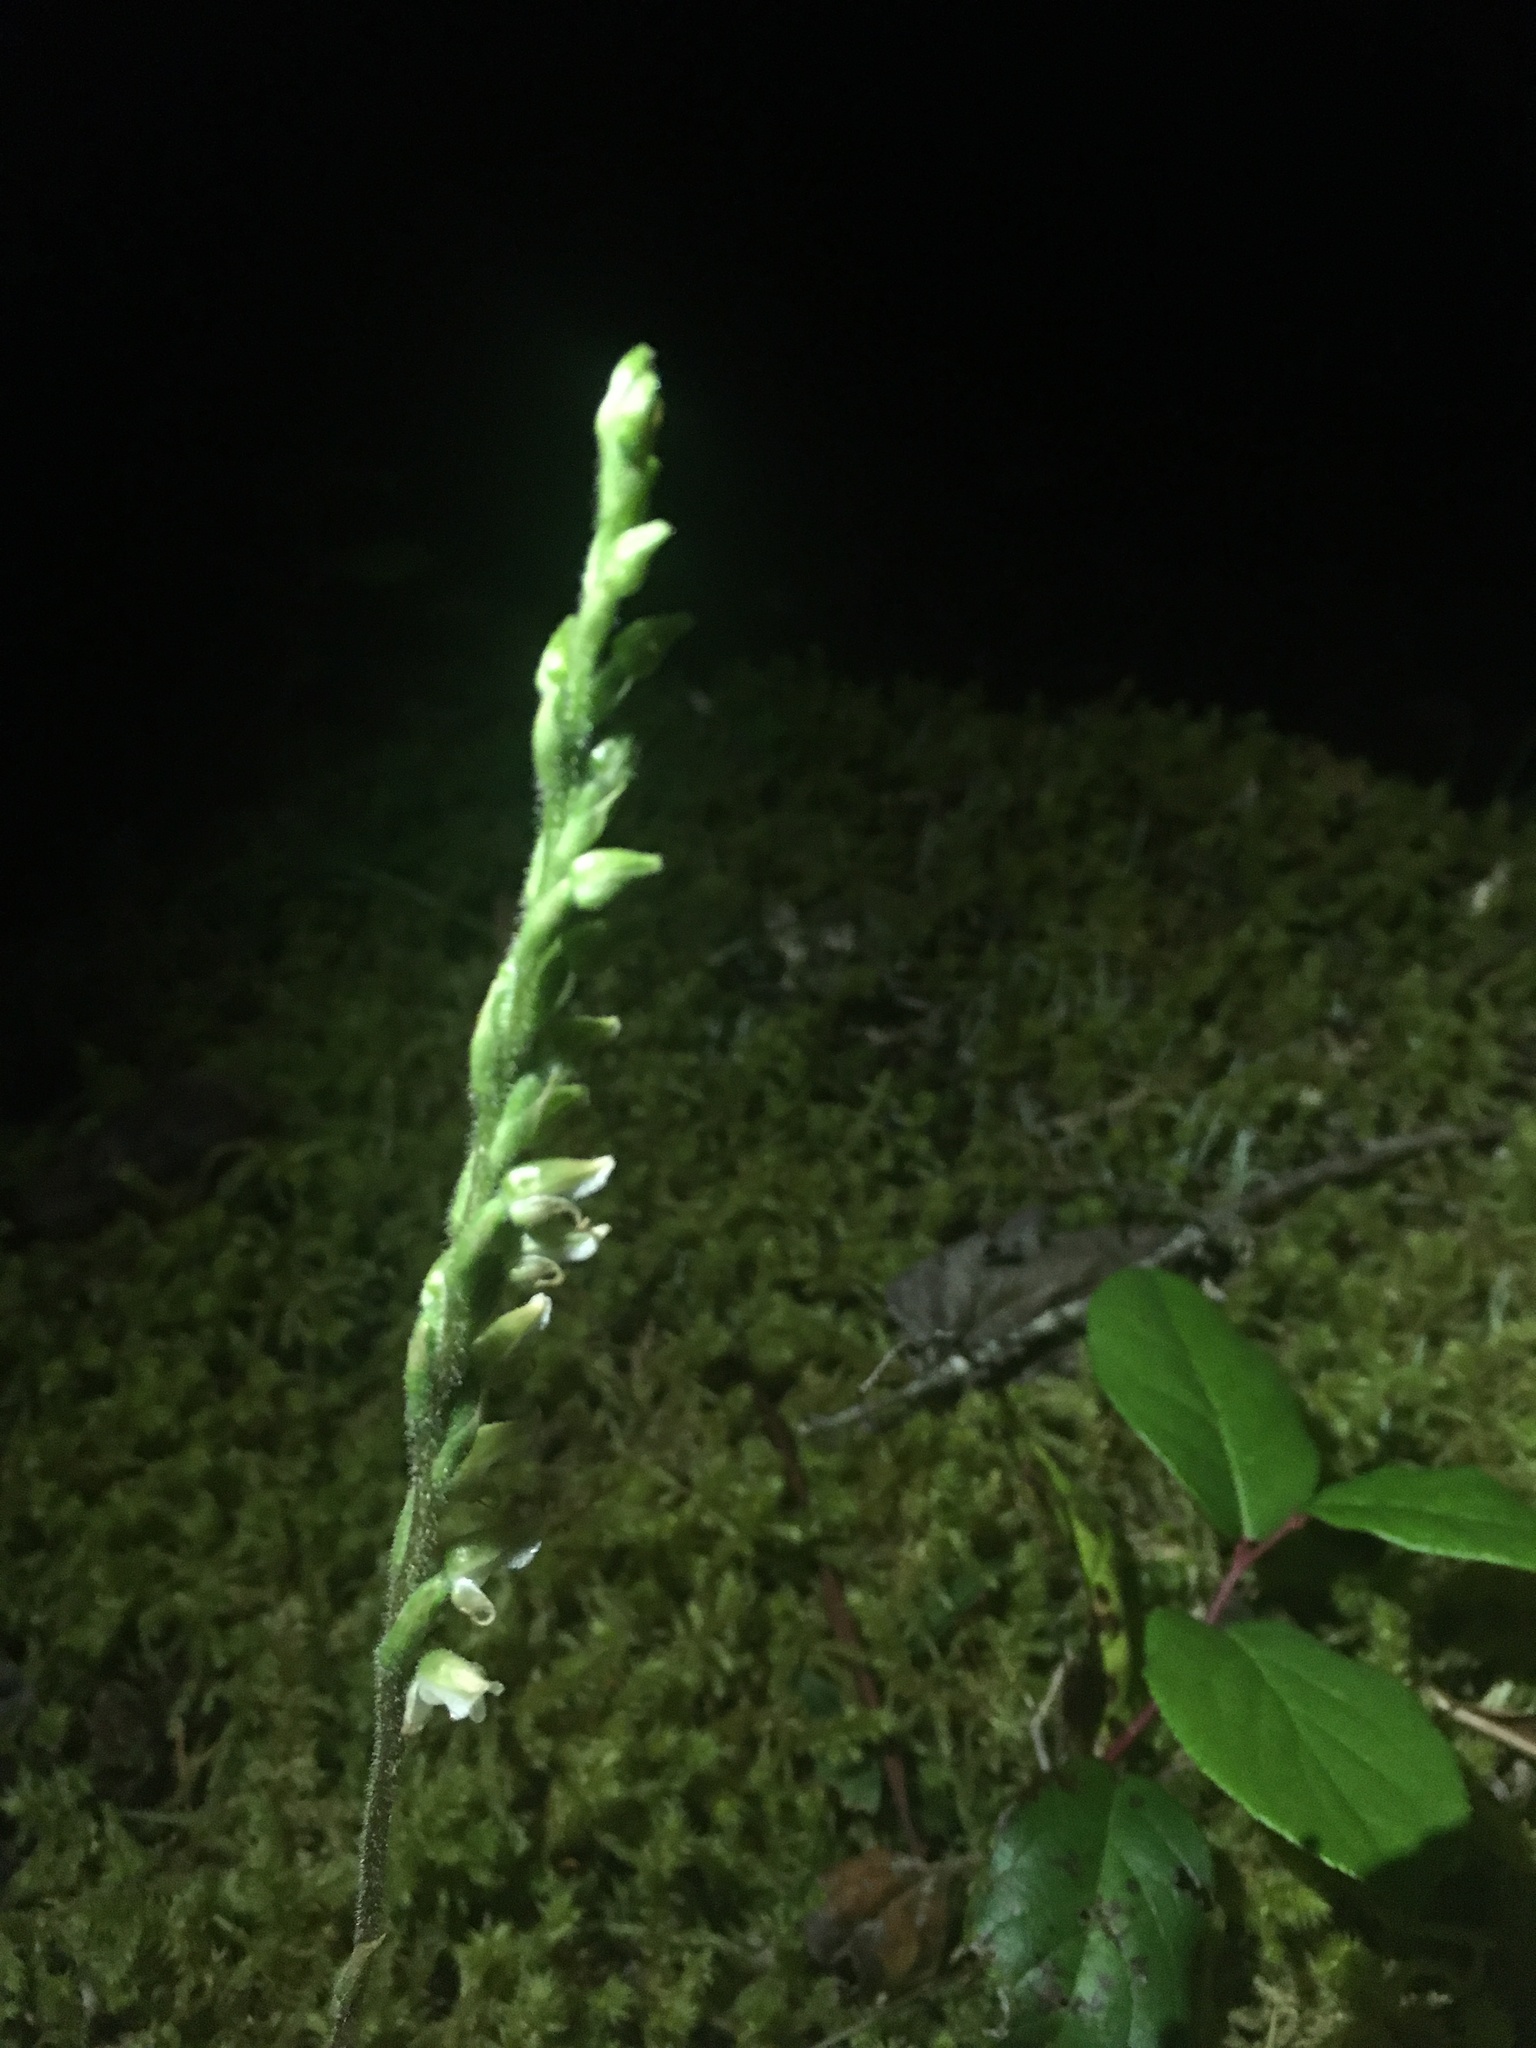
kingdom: Plantae
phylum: Tracheophyta
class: Liliopsida
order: Asparagales
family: Orchidaceae
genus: Goodyera
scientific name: Goodyera oblongifolia
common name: Giant rattlesnake-plantain
